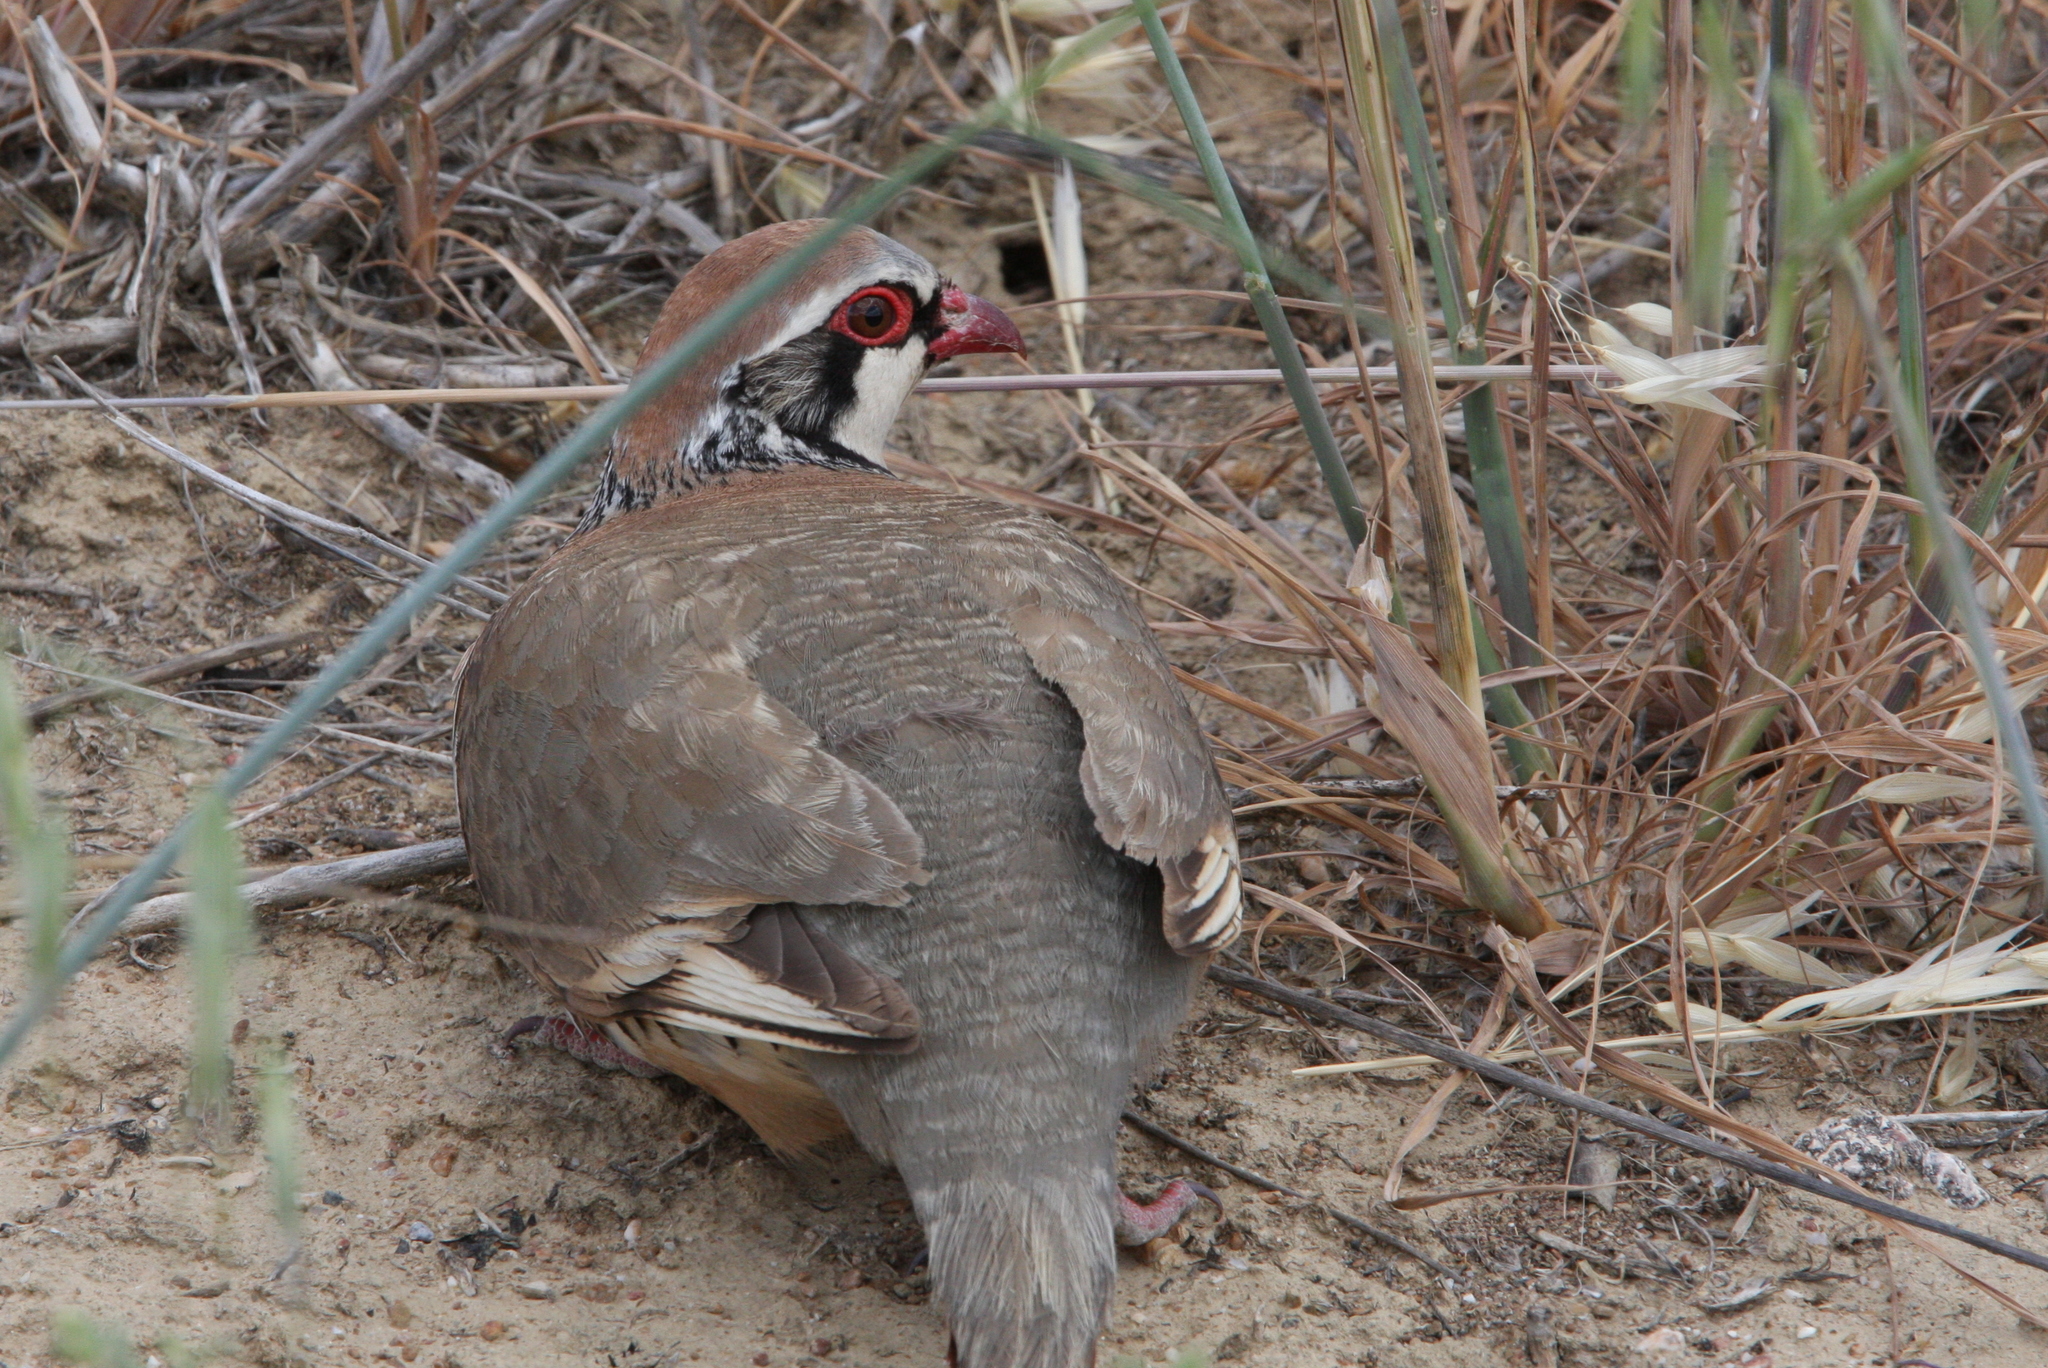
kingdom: Animalia
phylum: Chordata
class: Aves
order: Galliformes
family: Phasianidae
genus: Alectoris
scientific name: Alectoris rufa
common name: Red-legged partridge
